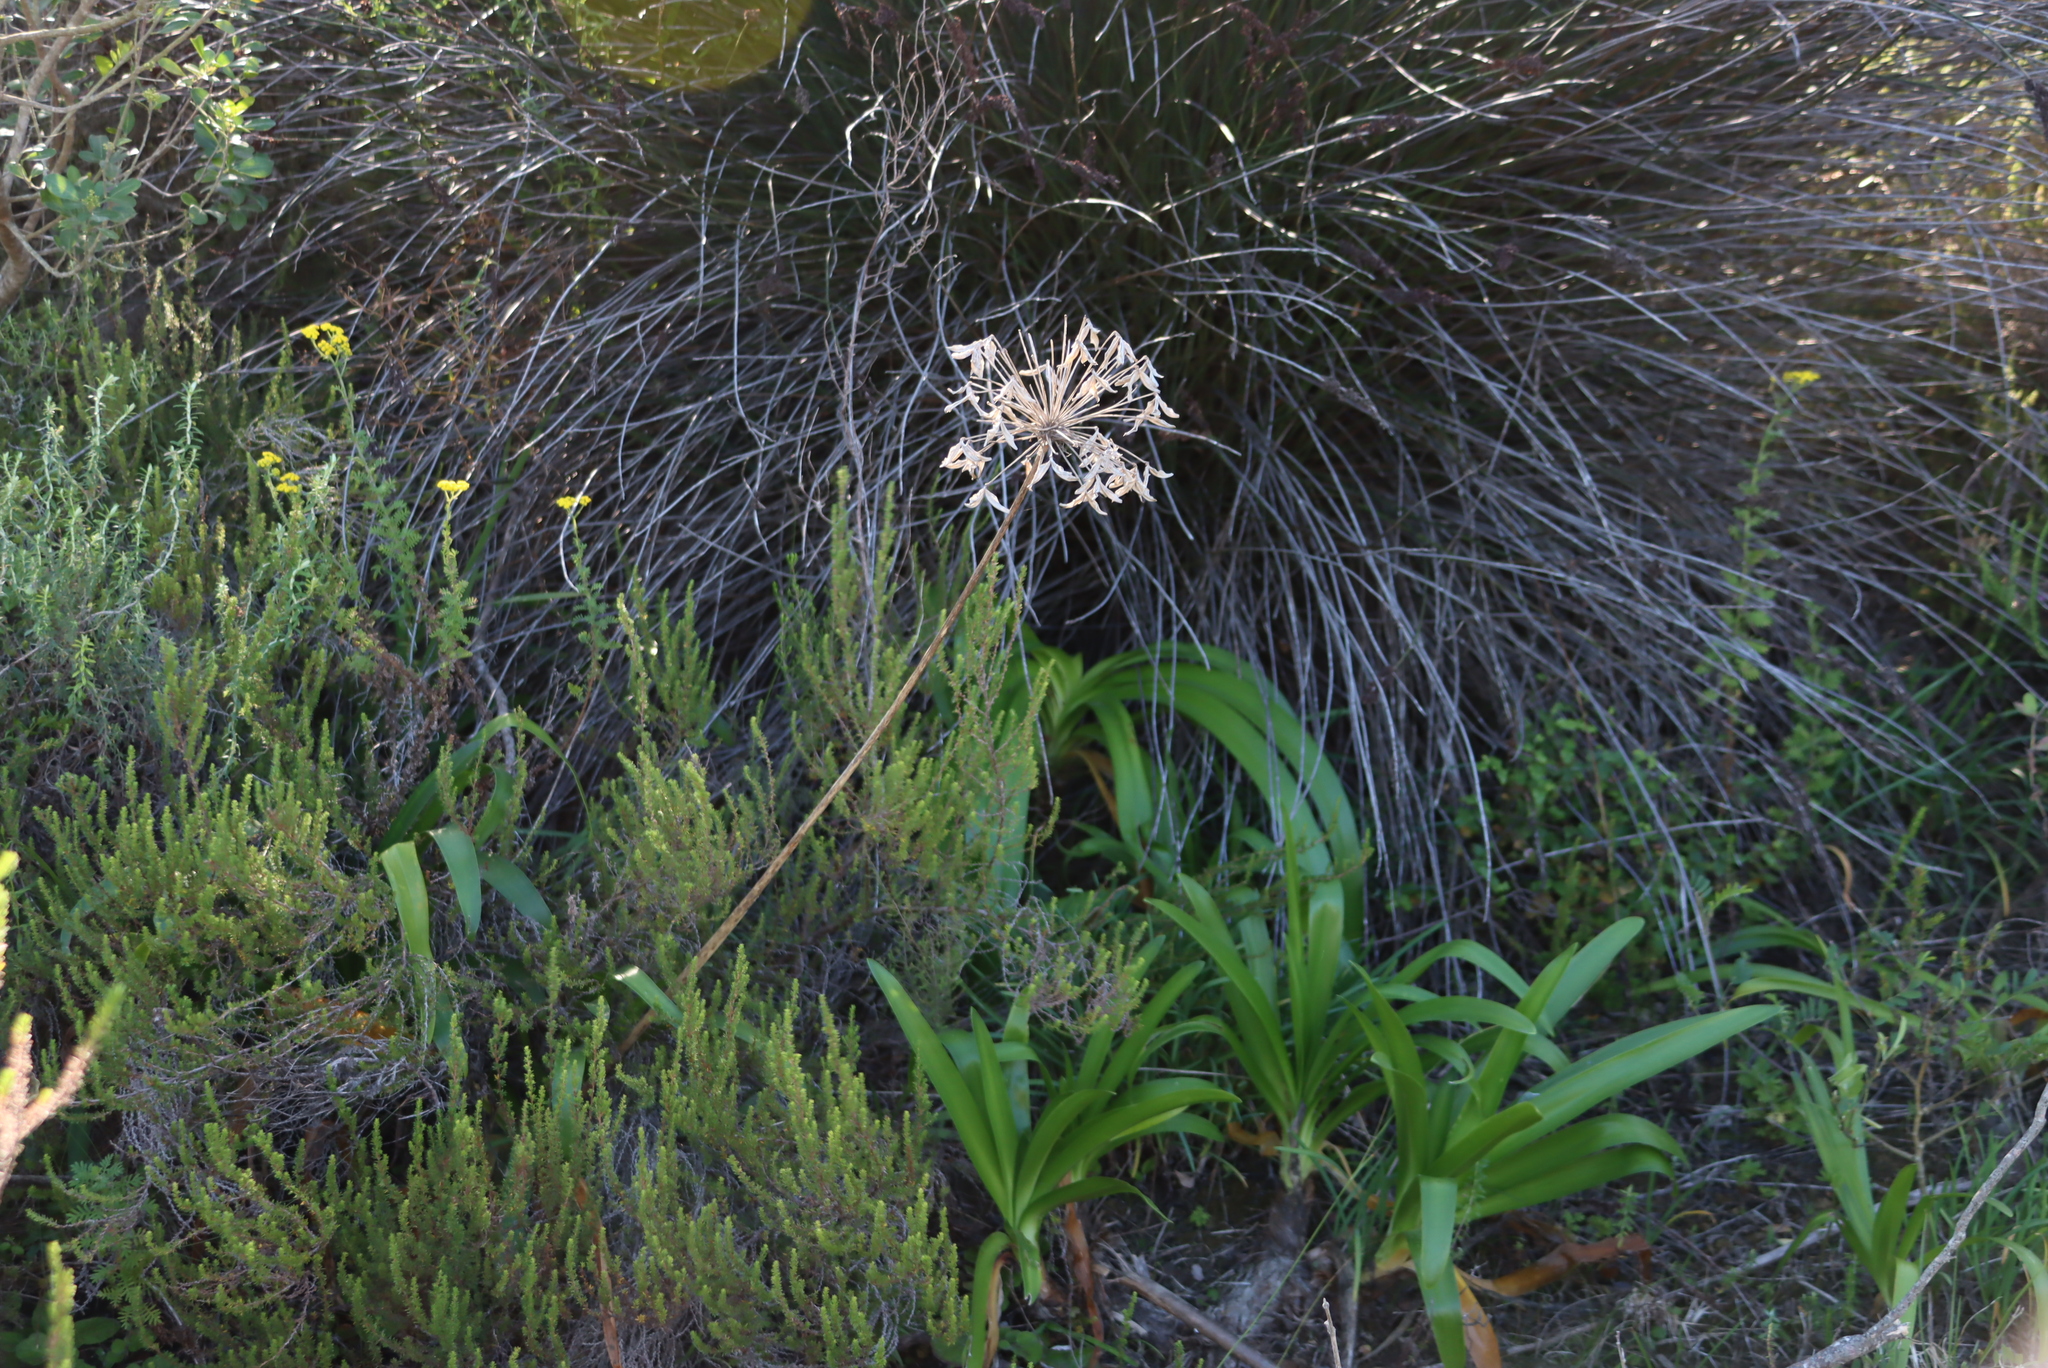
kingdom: Plantae
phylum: Tracheophyta
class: Liliopsida
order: Asparagales
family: Amaryllidaceae
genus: Agapanthus
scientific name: Agapanthus praecox
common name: African-lily
